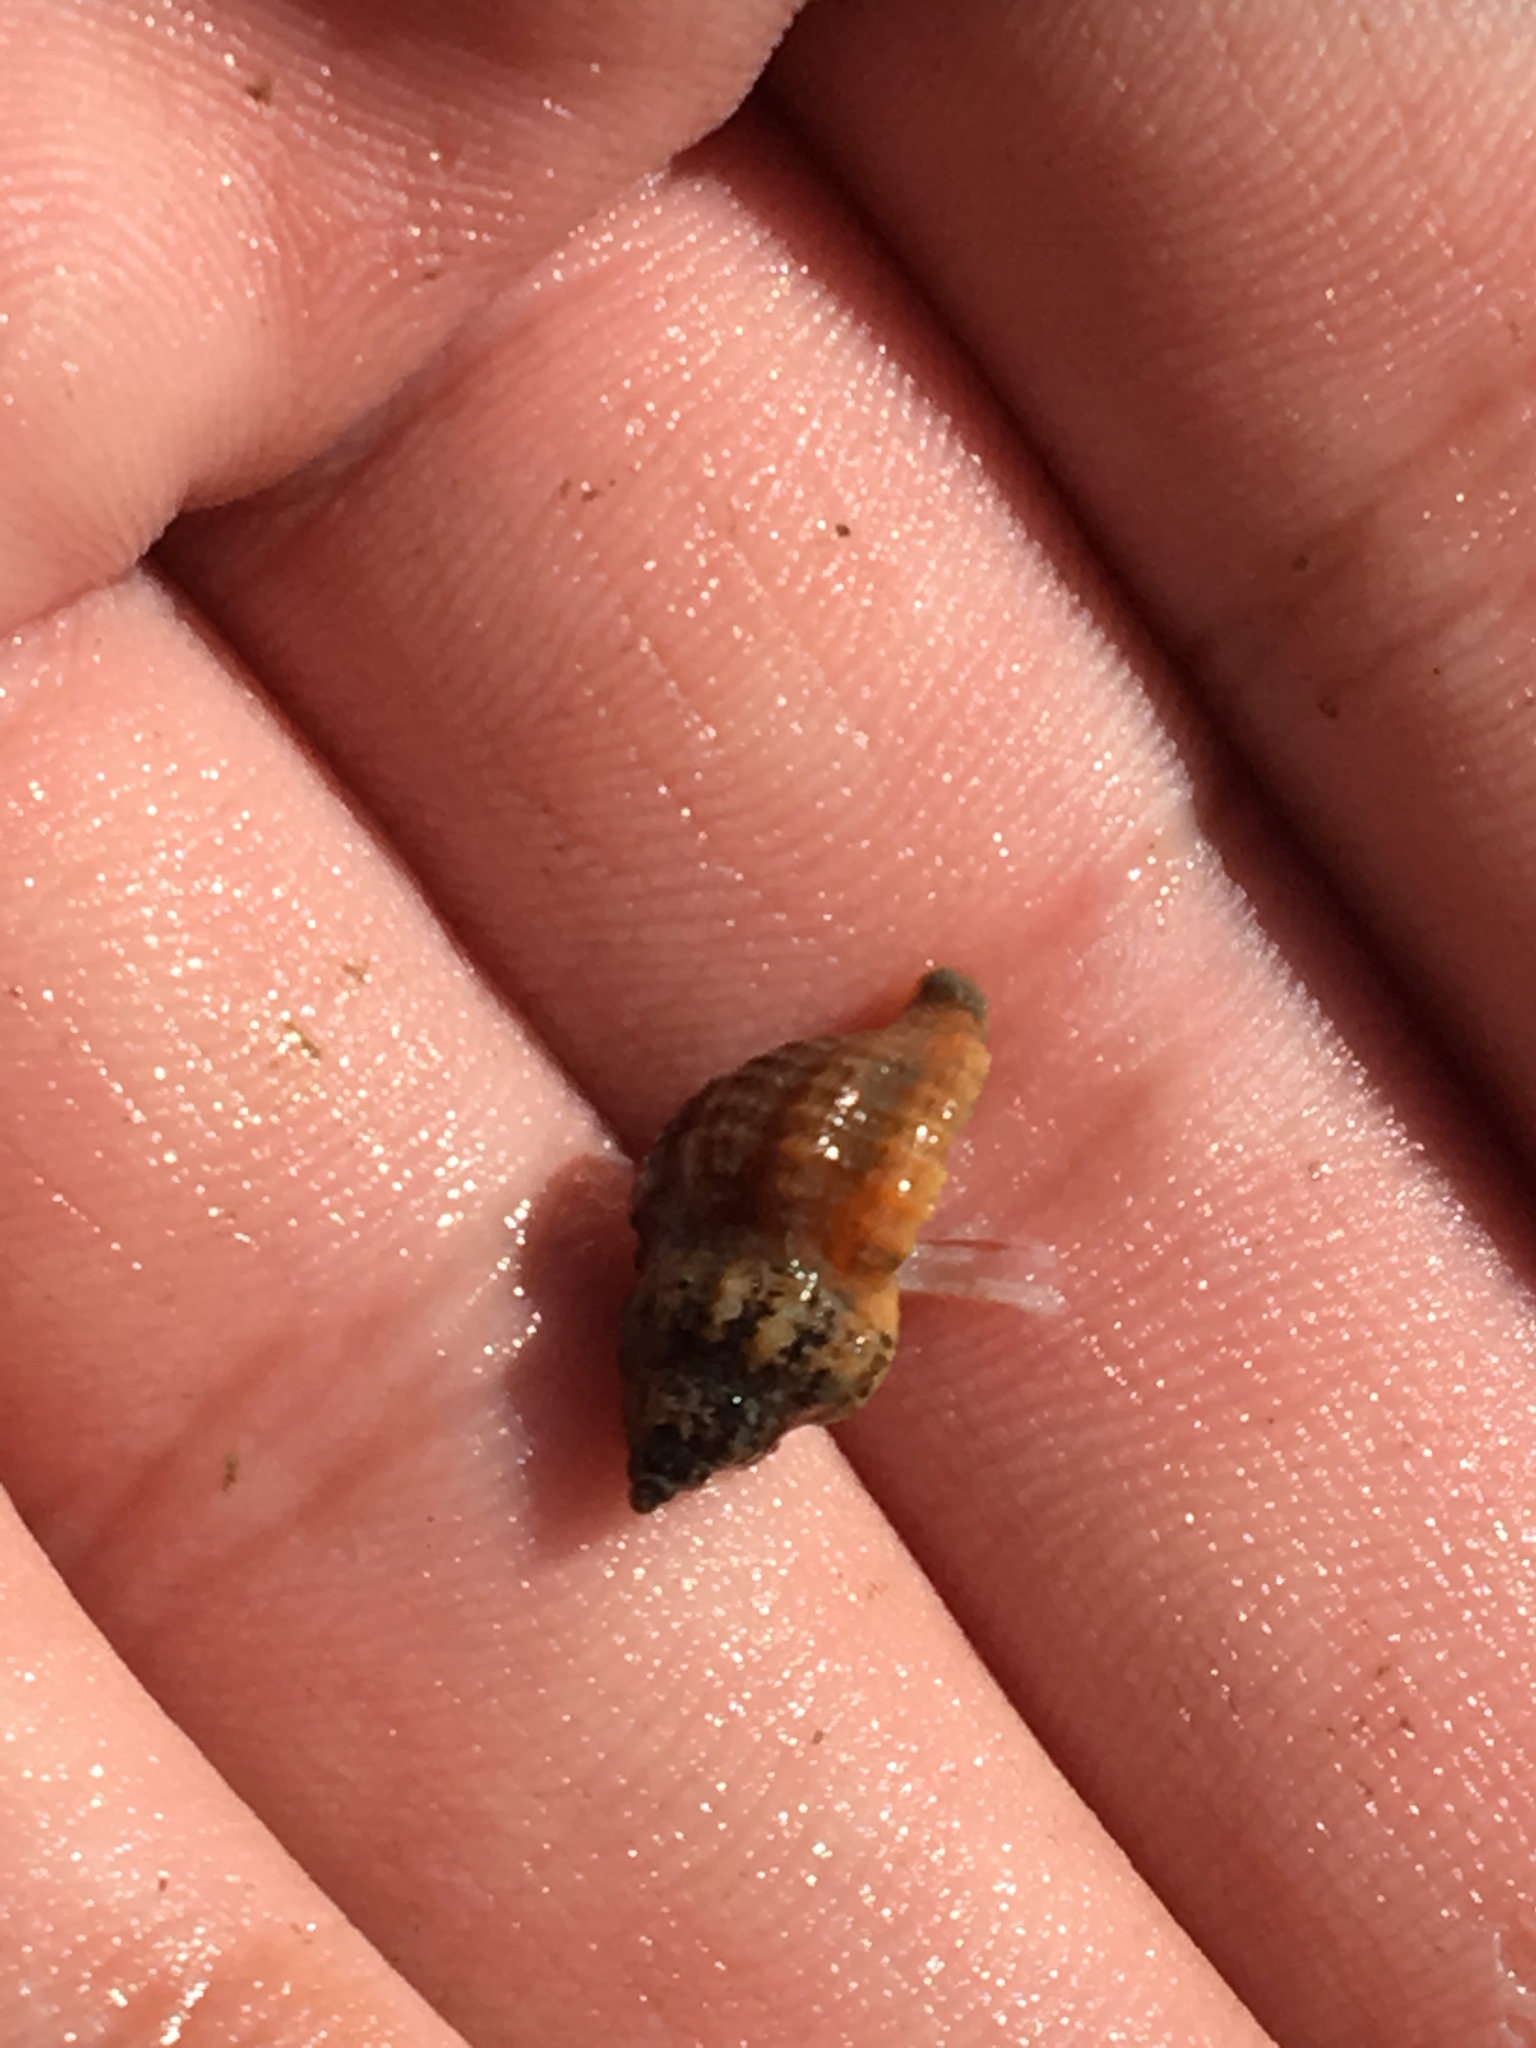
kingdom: Animalia
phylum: Mollusca
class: Gastropoda
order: Neogastropoda
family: Muricidae
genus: Urosalpinx
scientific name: Urosalpinx cinerea
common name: American sting winkle
